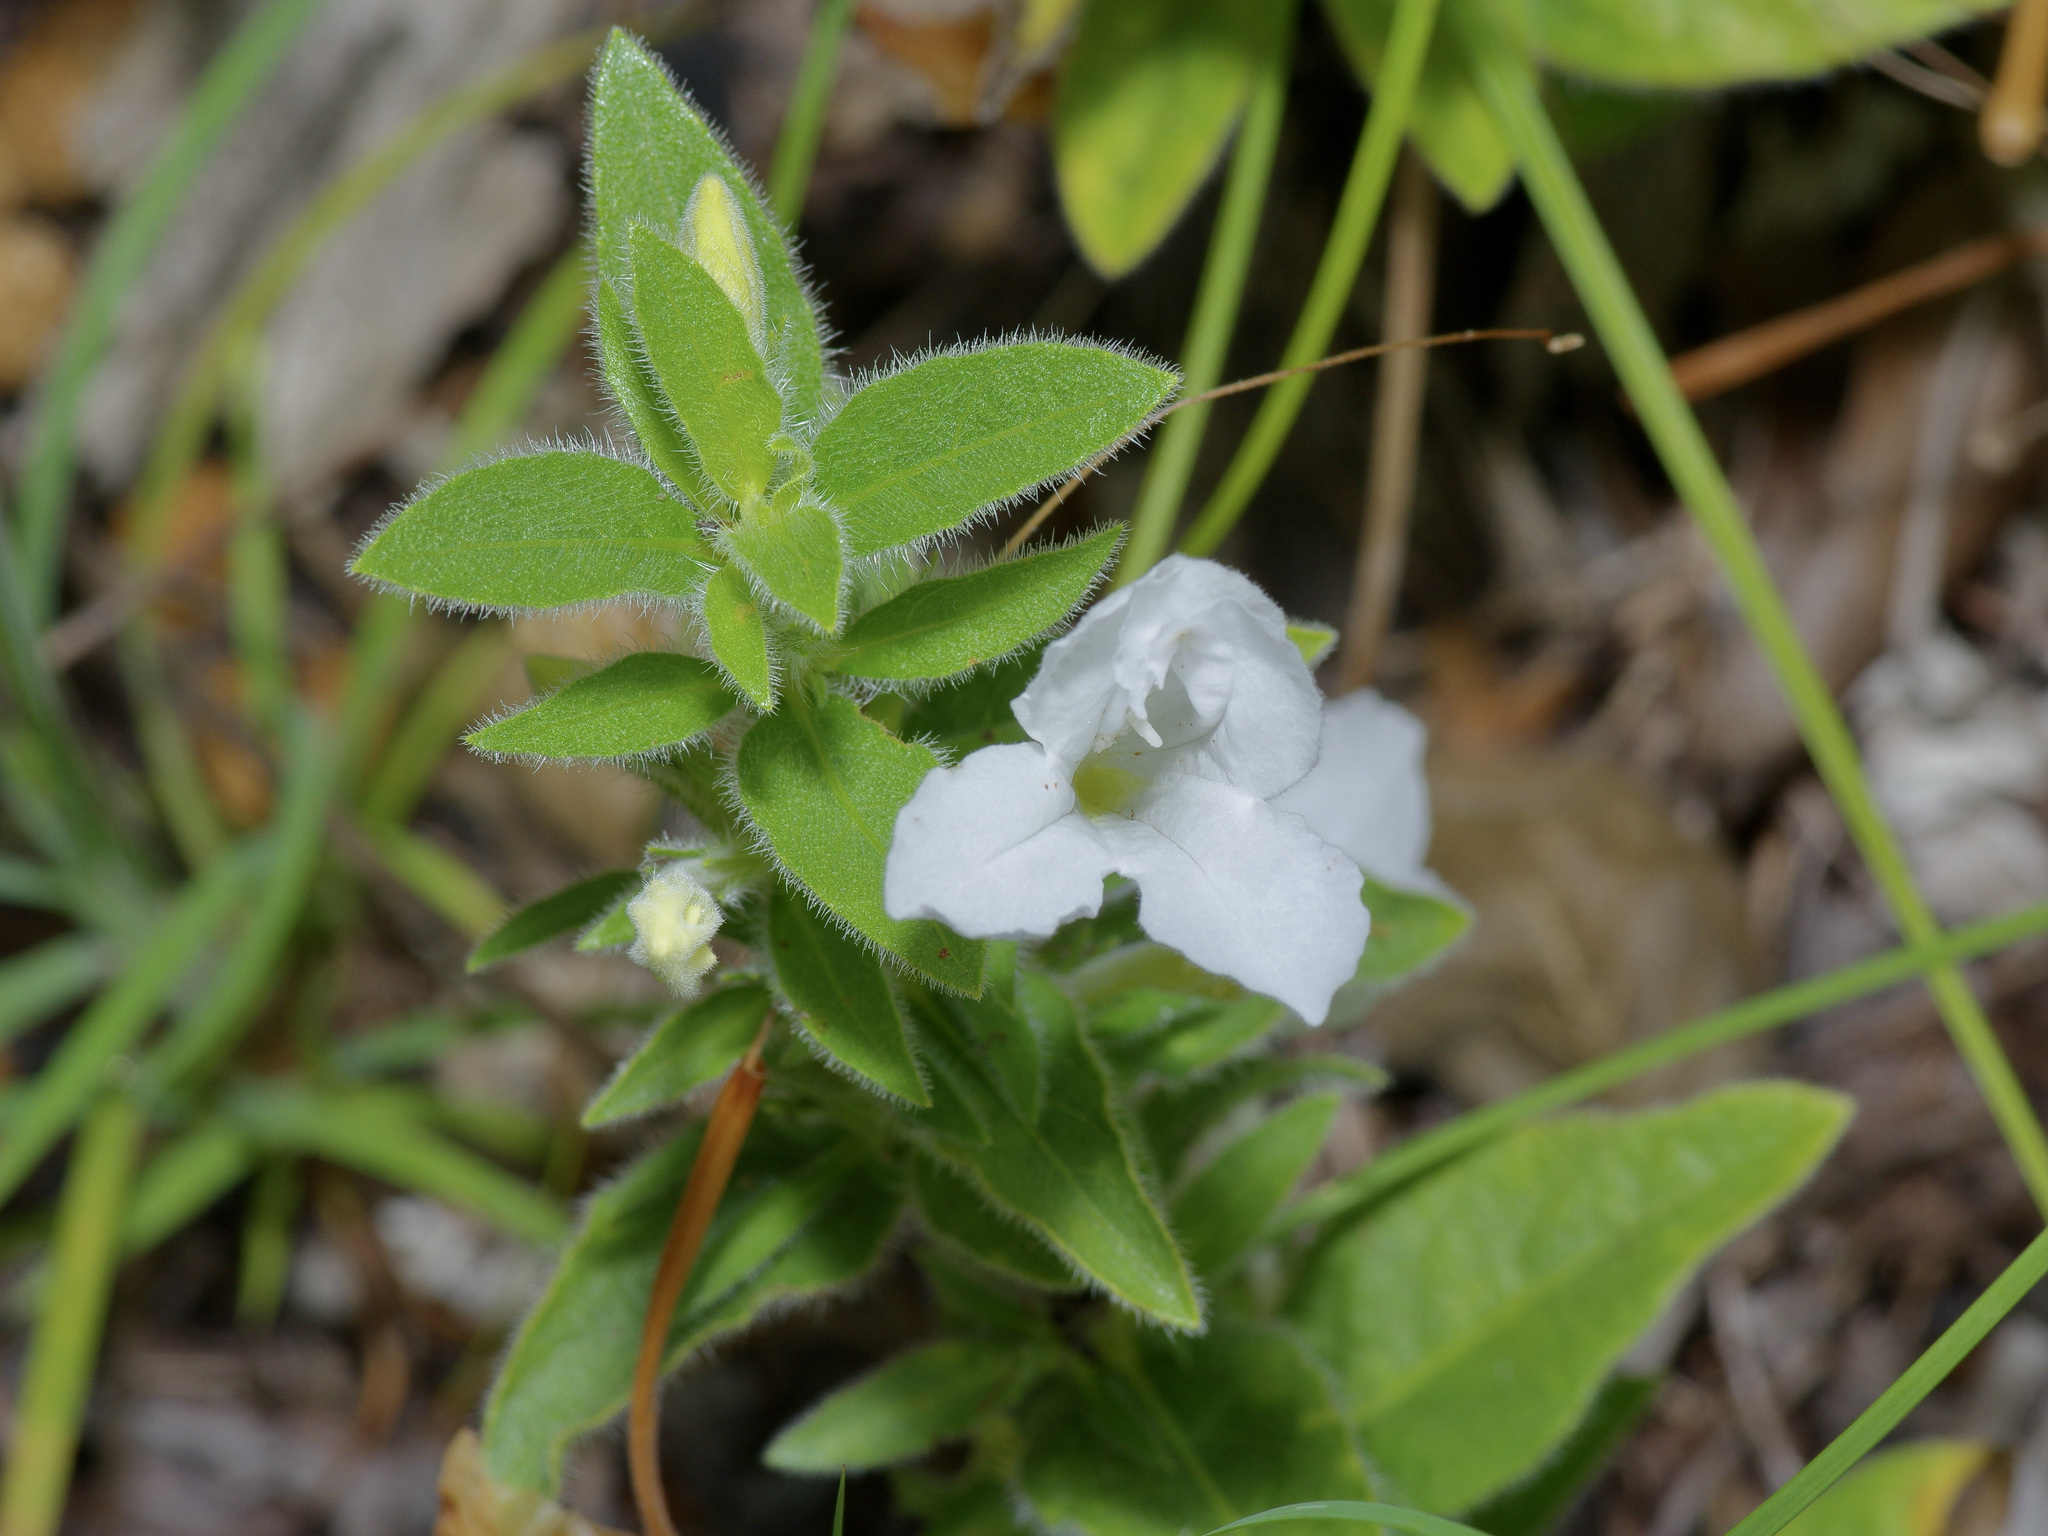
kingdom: Plantae
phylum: Tracheophyta
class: Magnoliopsida
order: Lamiales
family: Acanthaceae
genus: Ruellia
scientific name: Ruellia humilis
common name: Fringe-leaf ruellia
